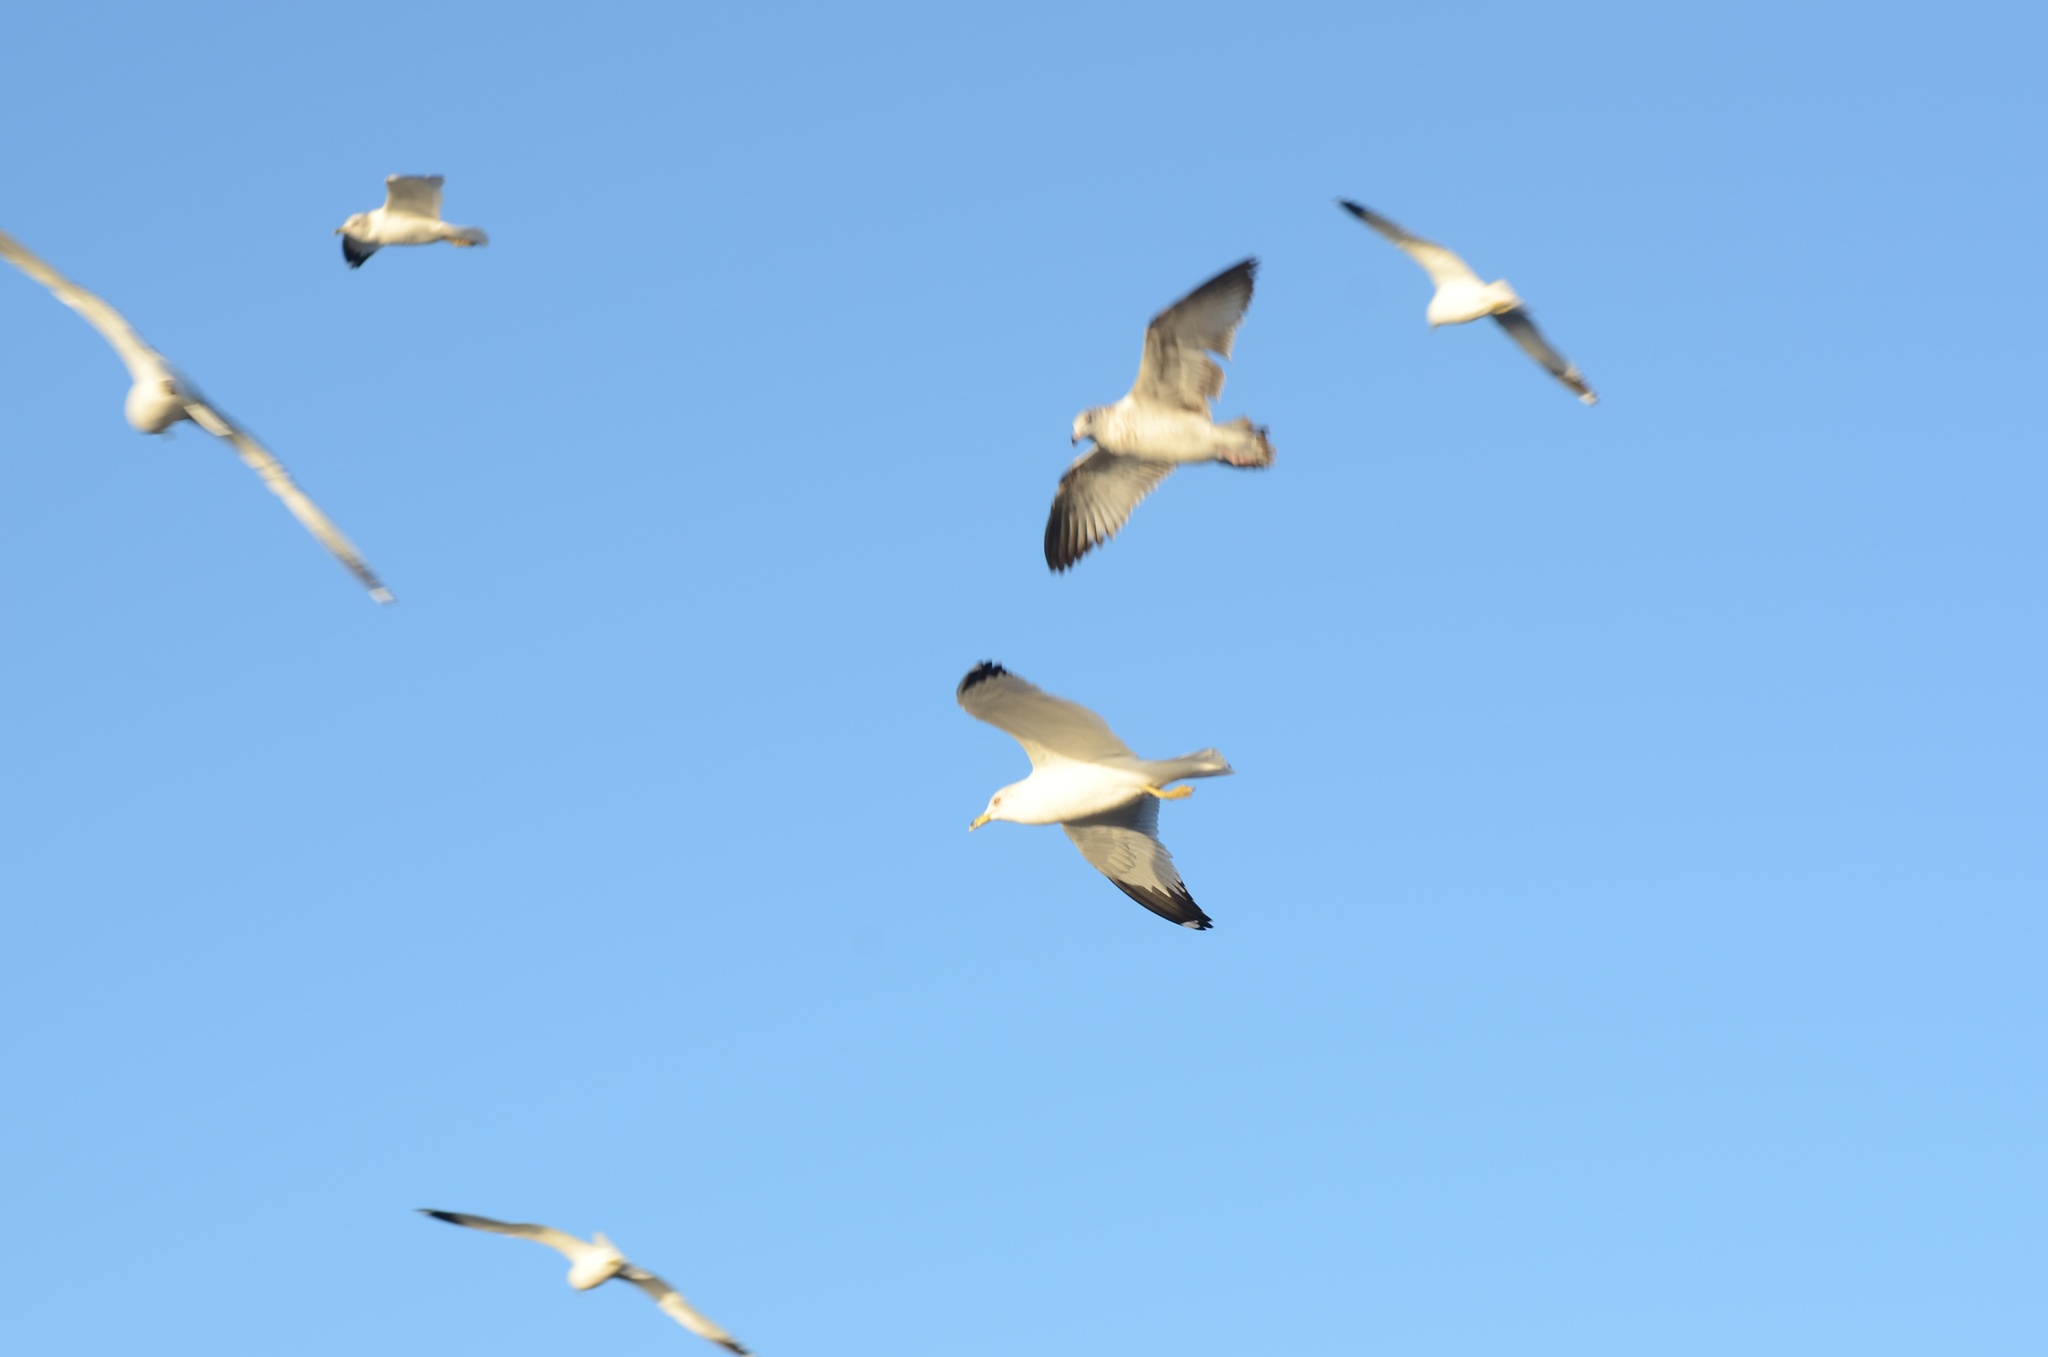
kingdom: Animalia
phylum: Chordata
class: Aves
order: Charadriiformes
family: Laridae
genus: Larus
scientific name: Larus delawarensis
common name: Ring-billed gull
